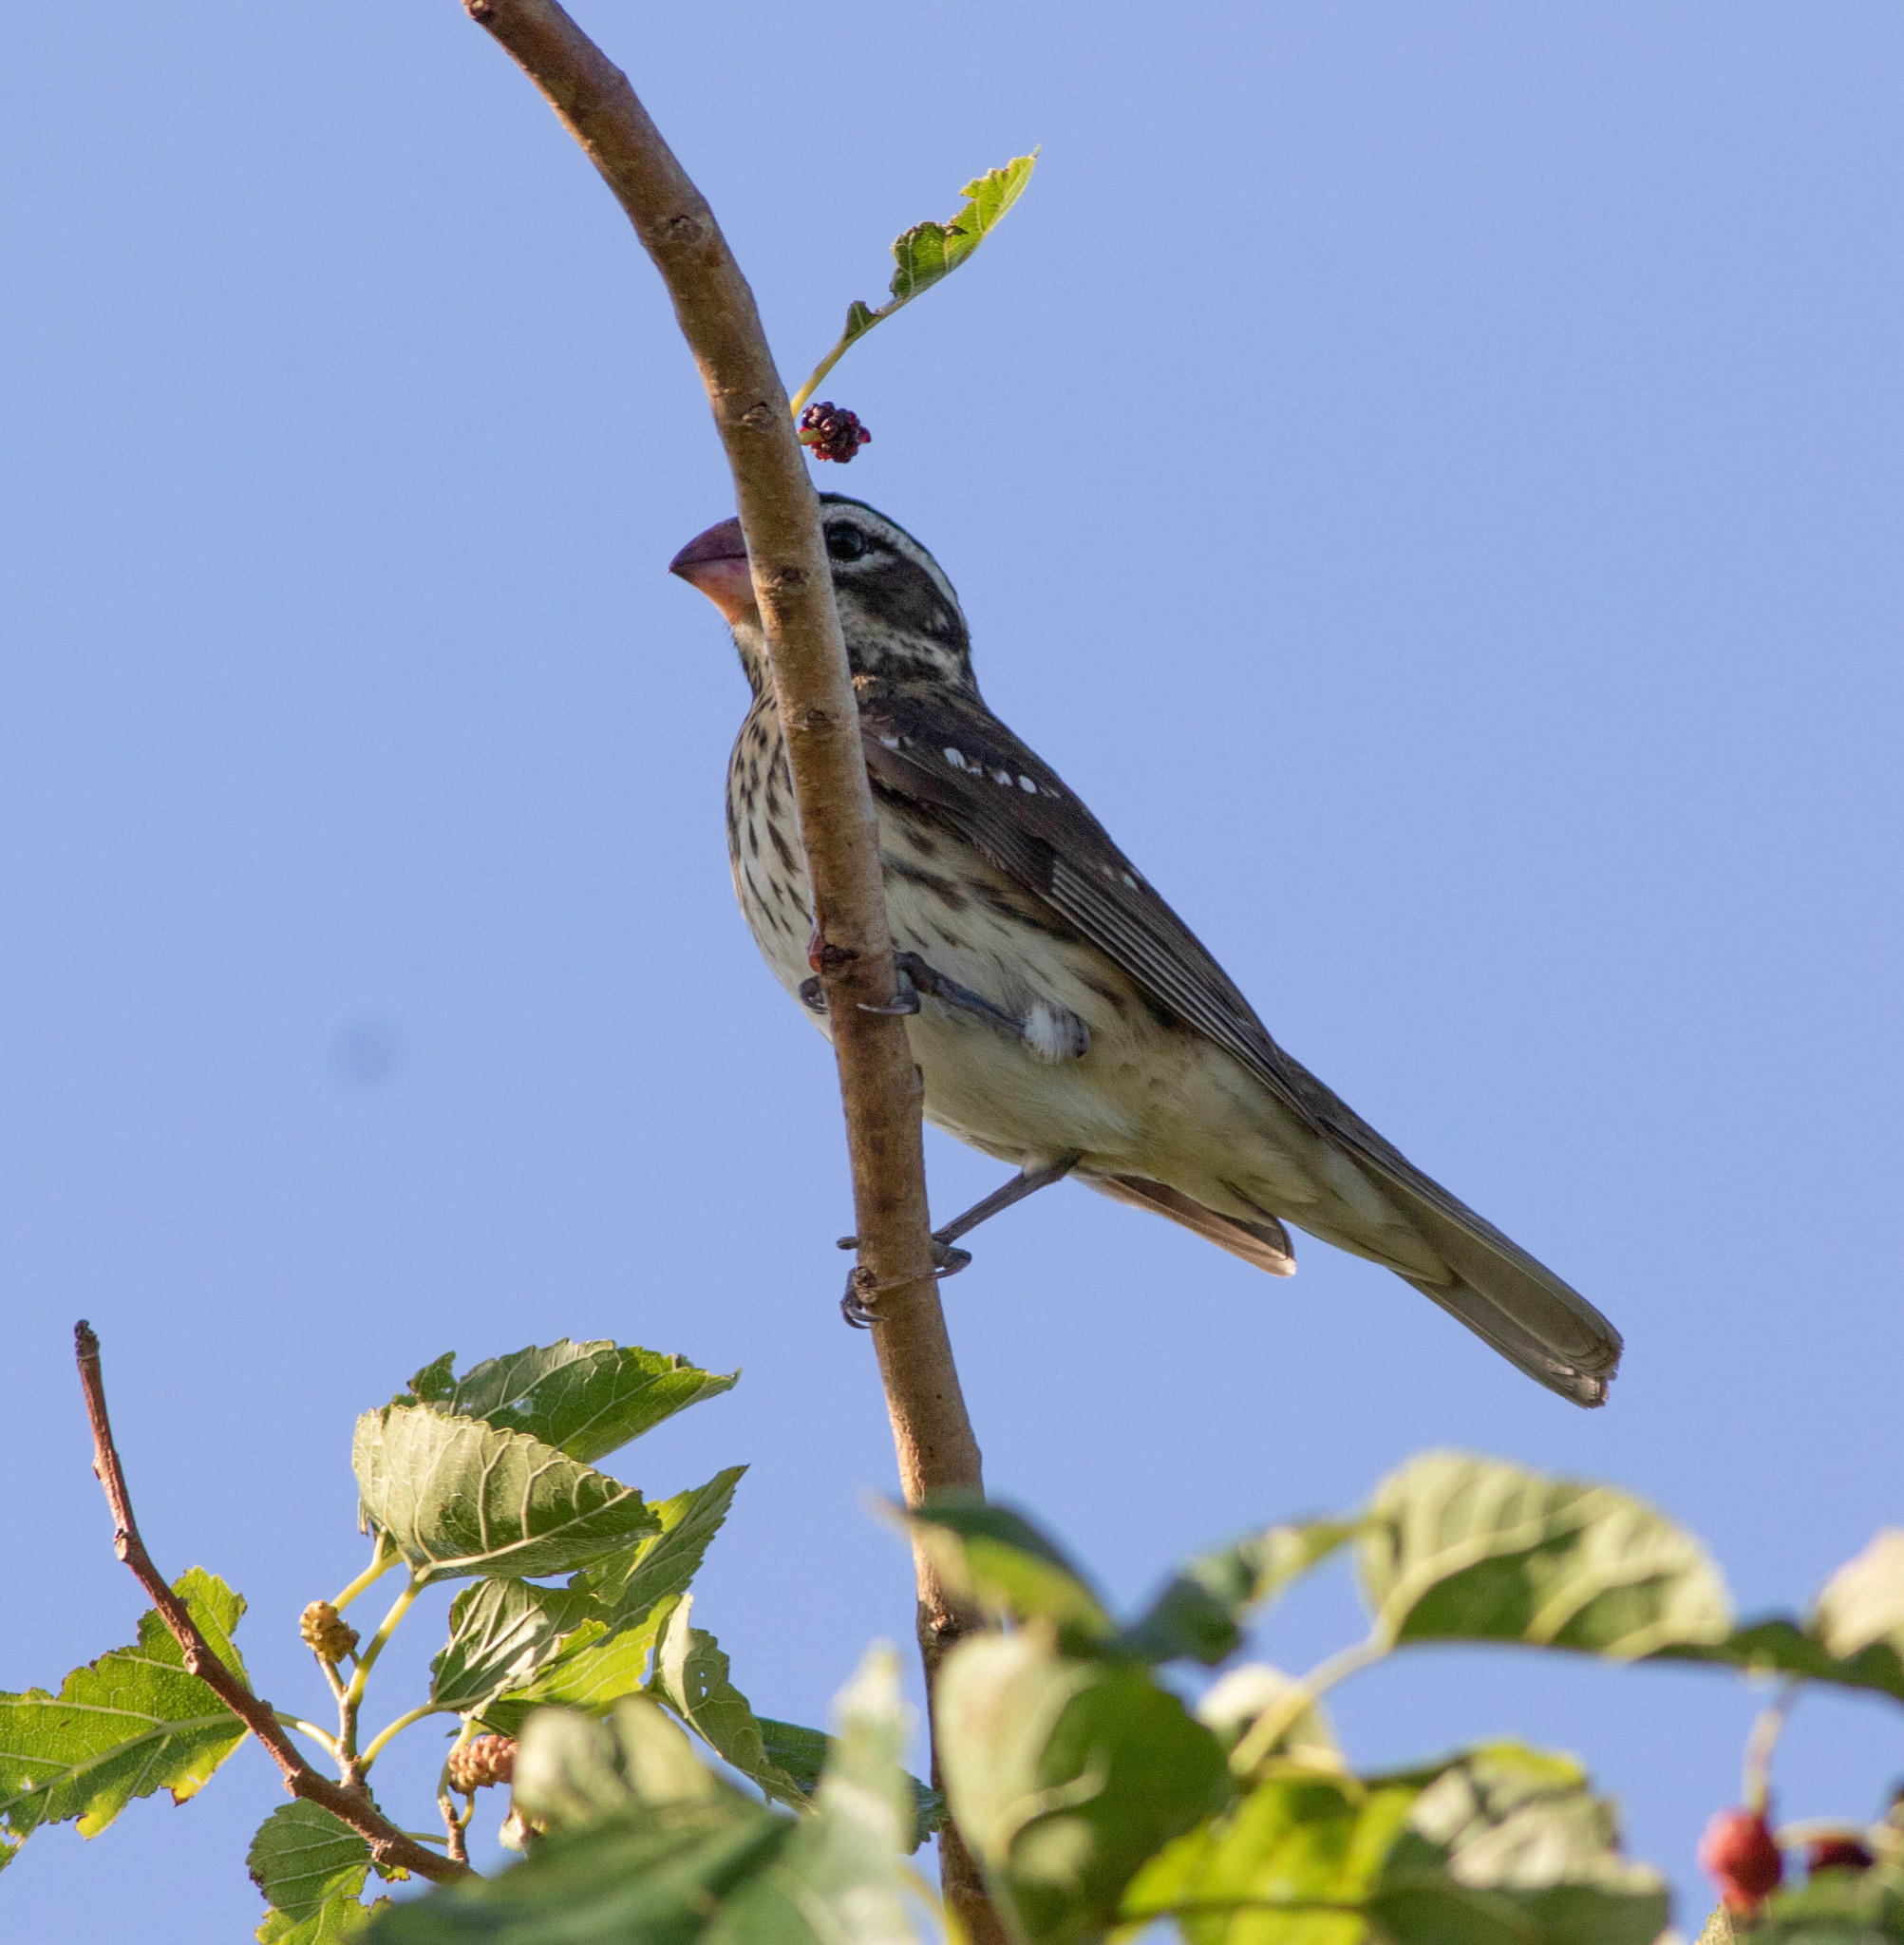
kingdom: Animalia
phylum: Chordata
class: Aves
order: Passeriformes
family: Cardinalidae
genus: Pheucticus
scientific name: Pheucticus ludovicianus
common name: Rose-breasted grosbeak
